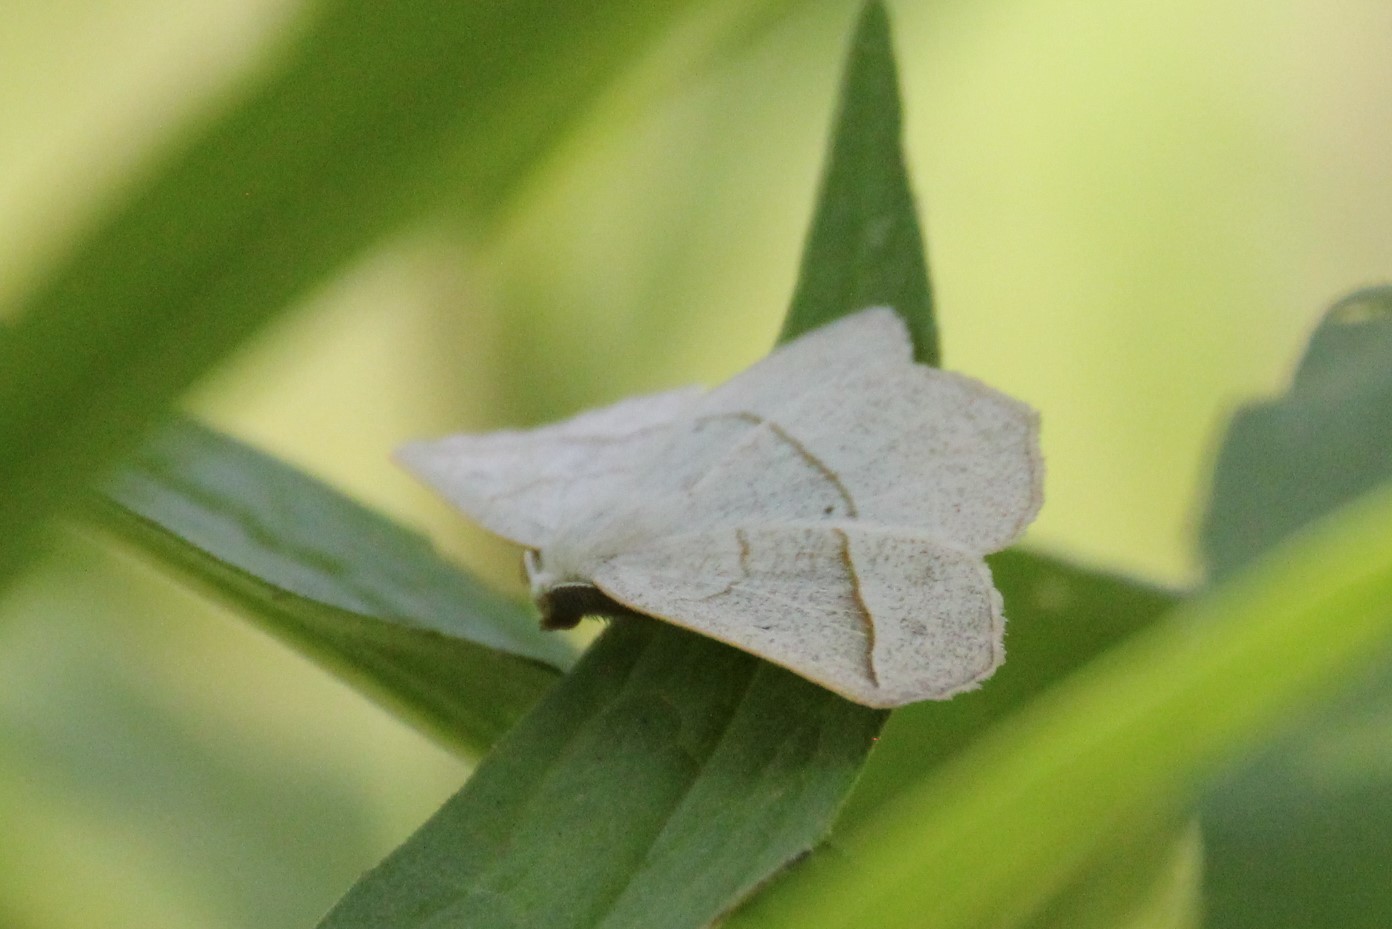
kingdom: Animalia
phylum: Arthropoda
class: Insecta
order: Lepidoptera
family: Geometridae
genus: Eusarca
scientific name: Eusarca confusaria
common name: Confused eusarca
